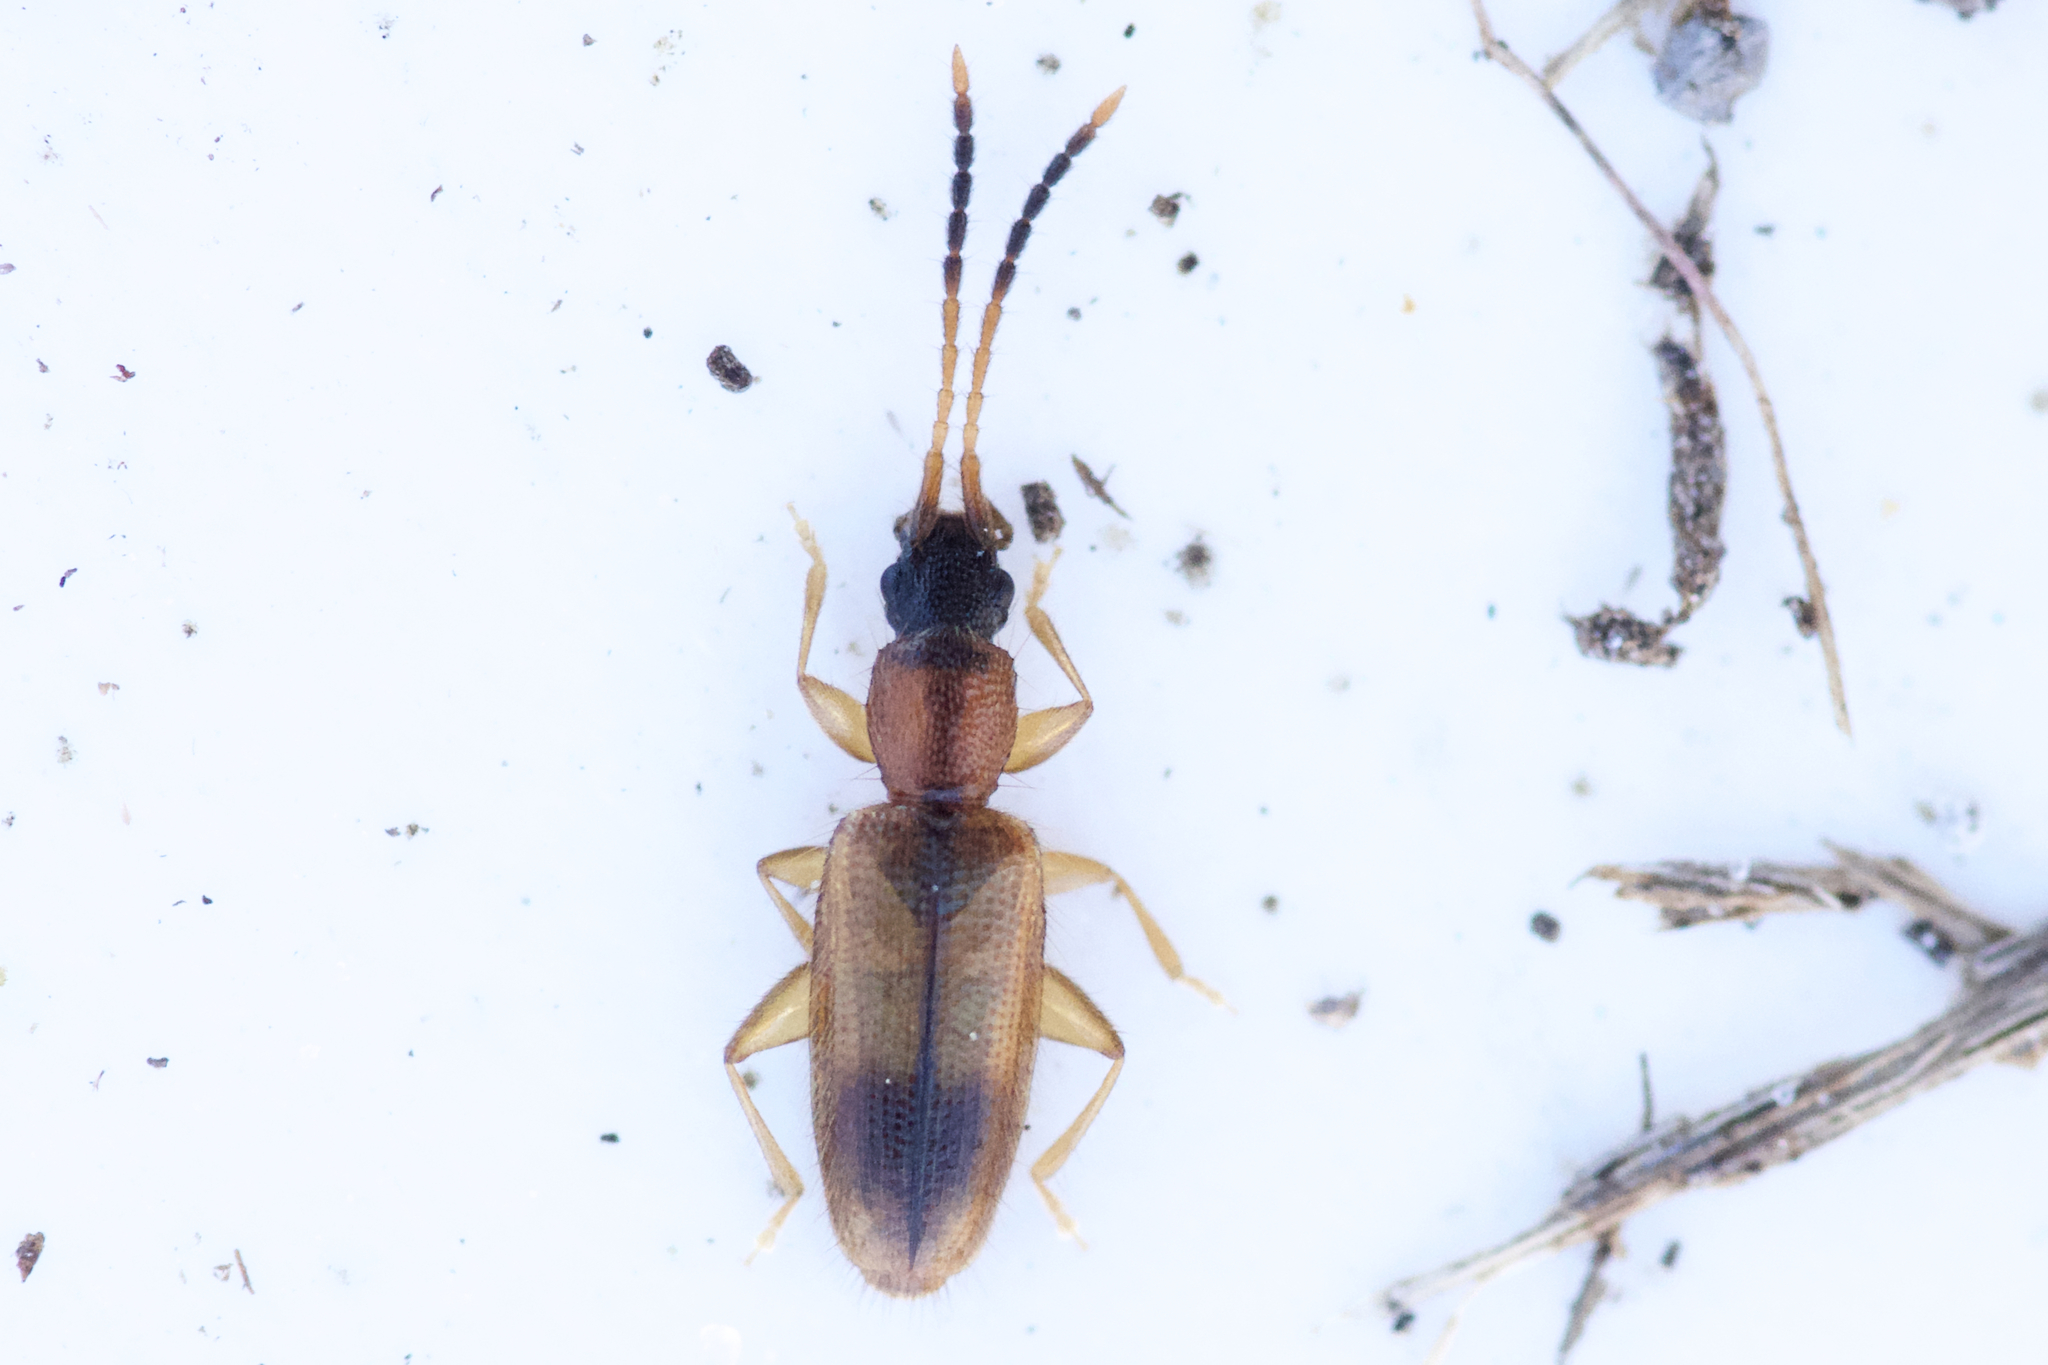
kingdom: Animalia
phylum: Arthropoda
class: Insecta
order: Coleoptera
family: Silvanidae
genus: Telephanus
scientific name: Telephanus velox
